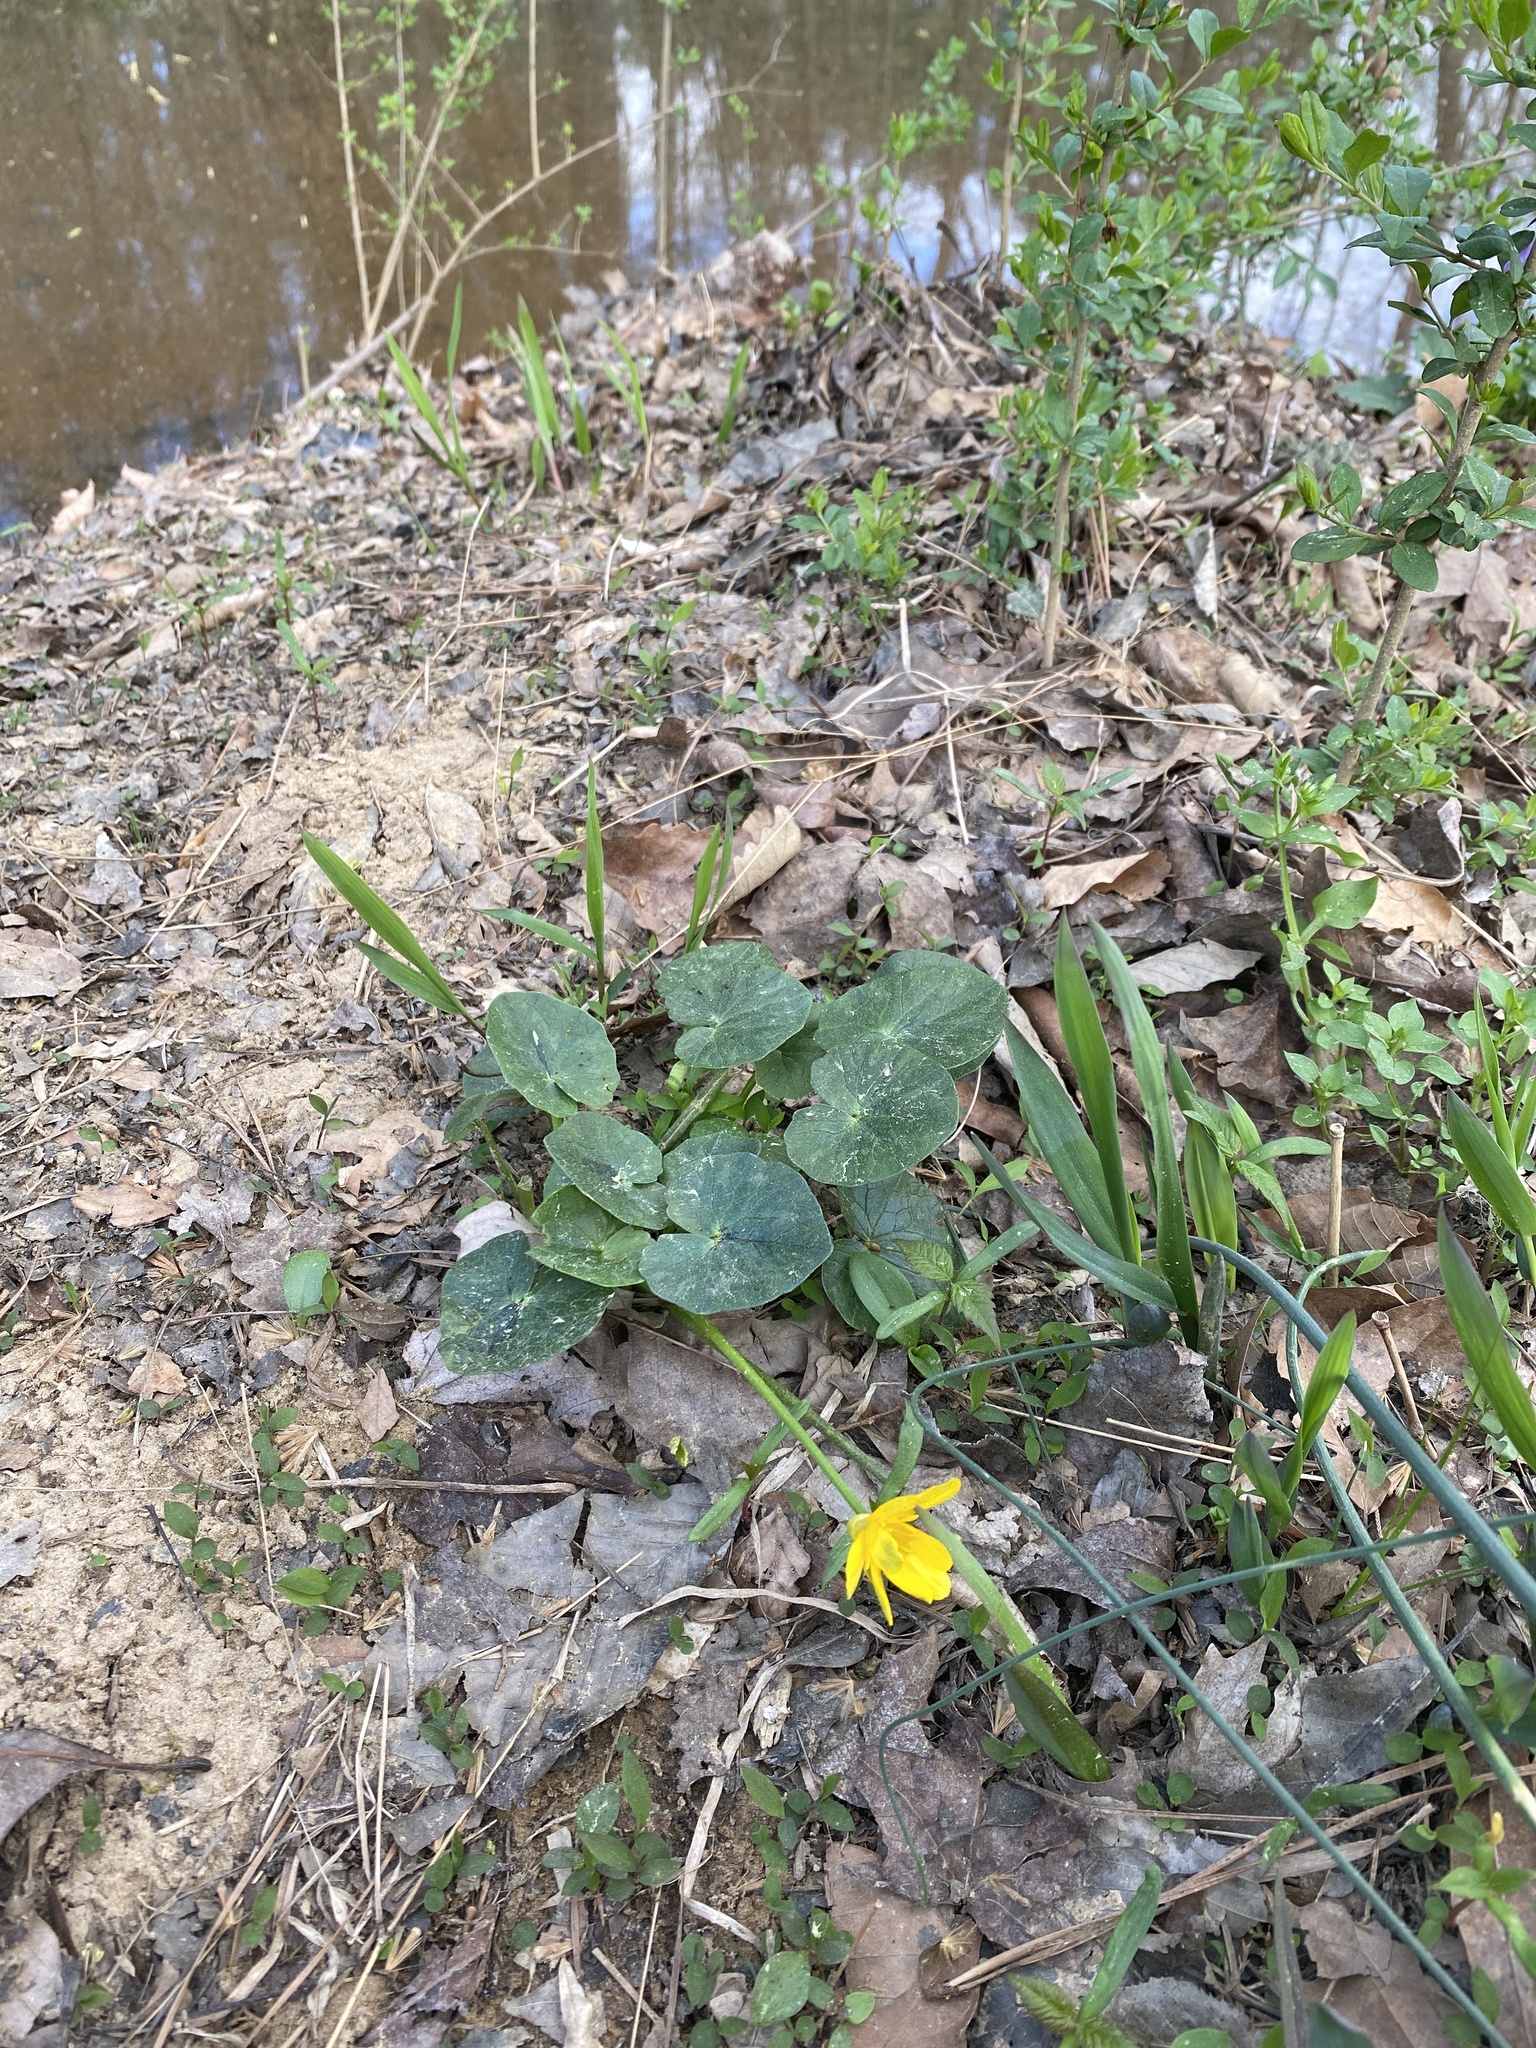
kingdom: Plantae
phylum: Tracheophyta
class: Magnoliopsida
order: Ranunculales
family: Ranunculaceae
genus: Ficaria
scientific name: Ficaria verna
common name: Lesser celandine
